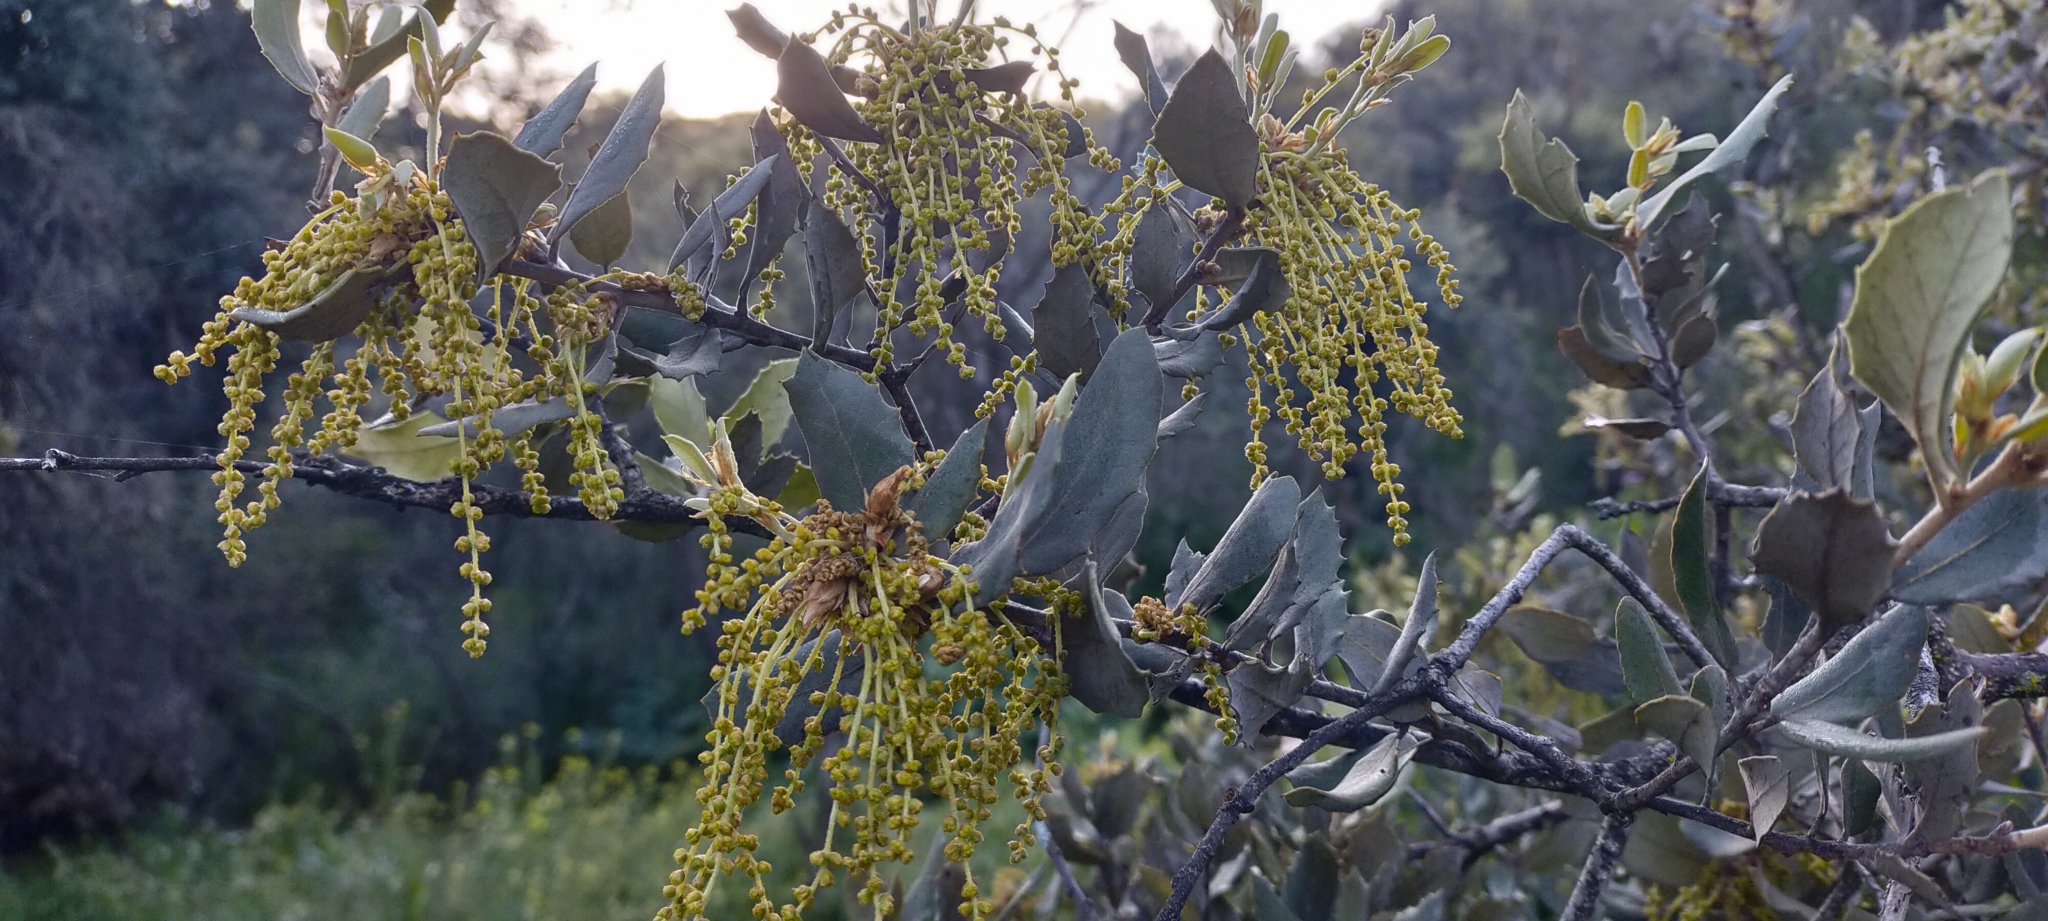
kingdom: Plantae
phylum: Tracheophyta
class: Magnoliopsida
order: Fagales
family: Fagaceae
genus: Quercus
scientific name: Quercus rotundifolia
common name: Holm oak
